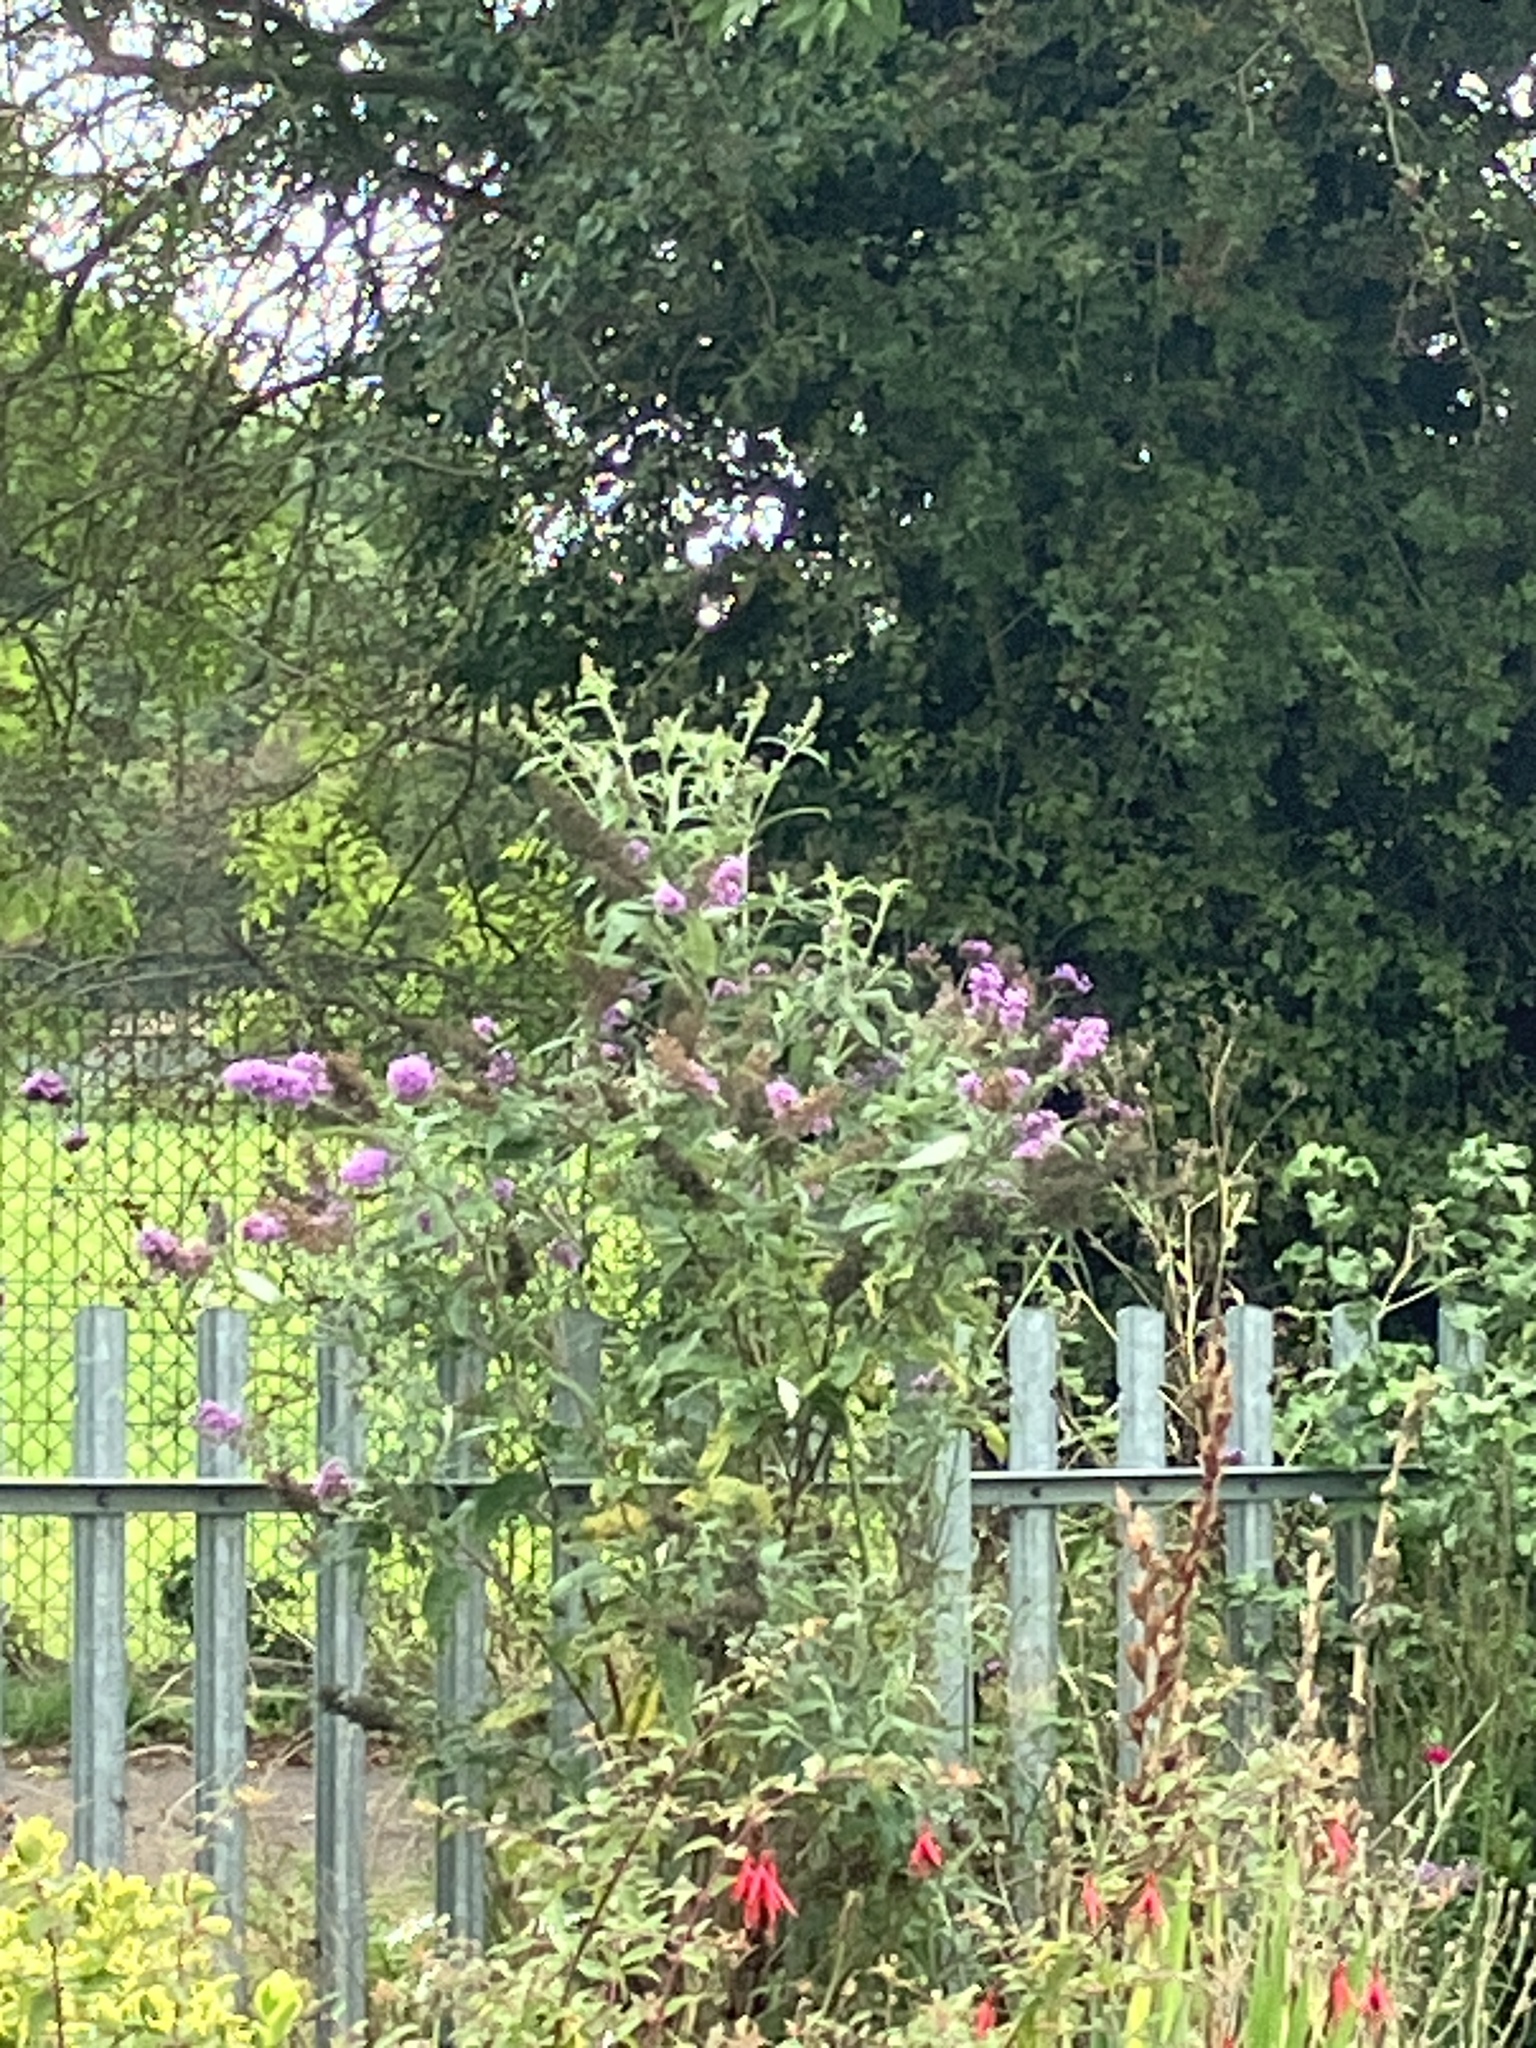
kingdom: Plantae
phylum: Tracheophyta
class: Magnoliopsida
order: Lamiales
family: Scrophulariaceae
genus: Buddleja
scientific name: Buddleja davidii
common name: Butterfly-bush
